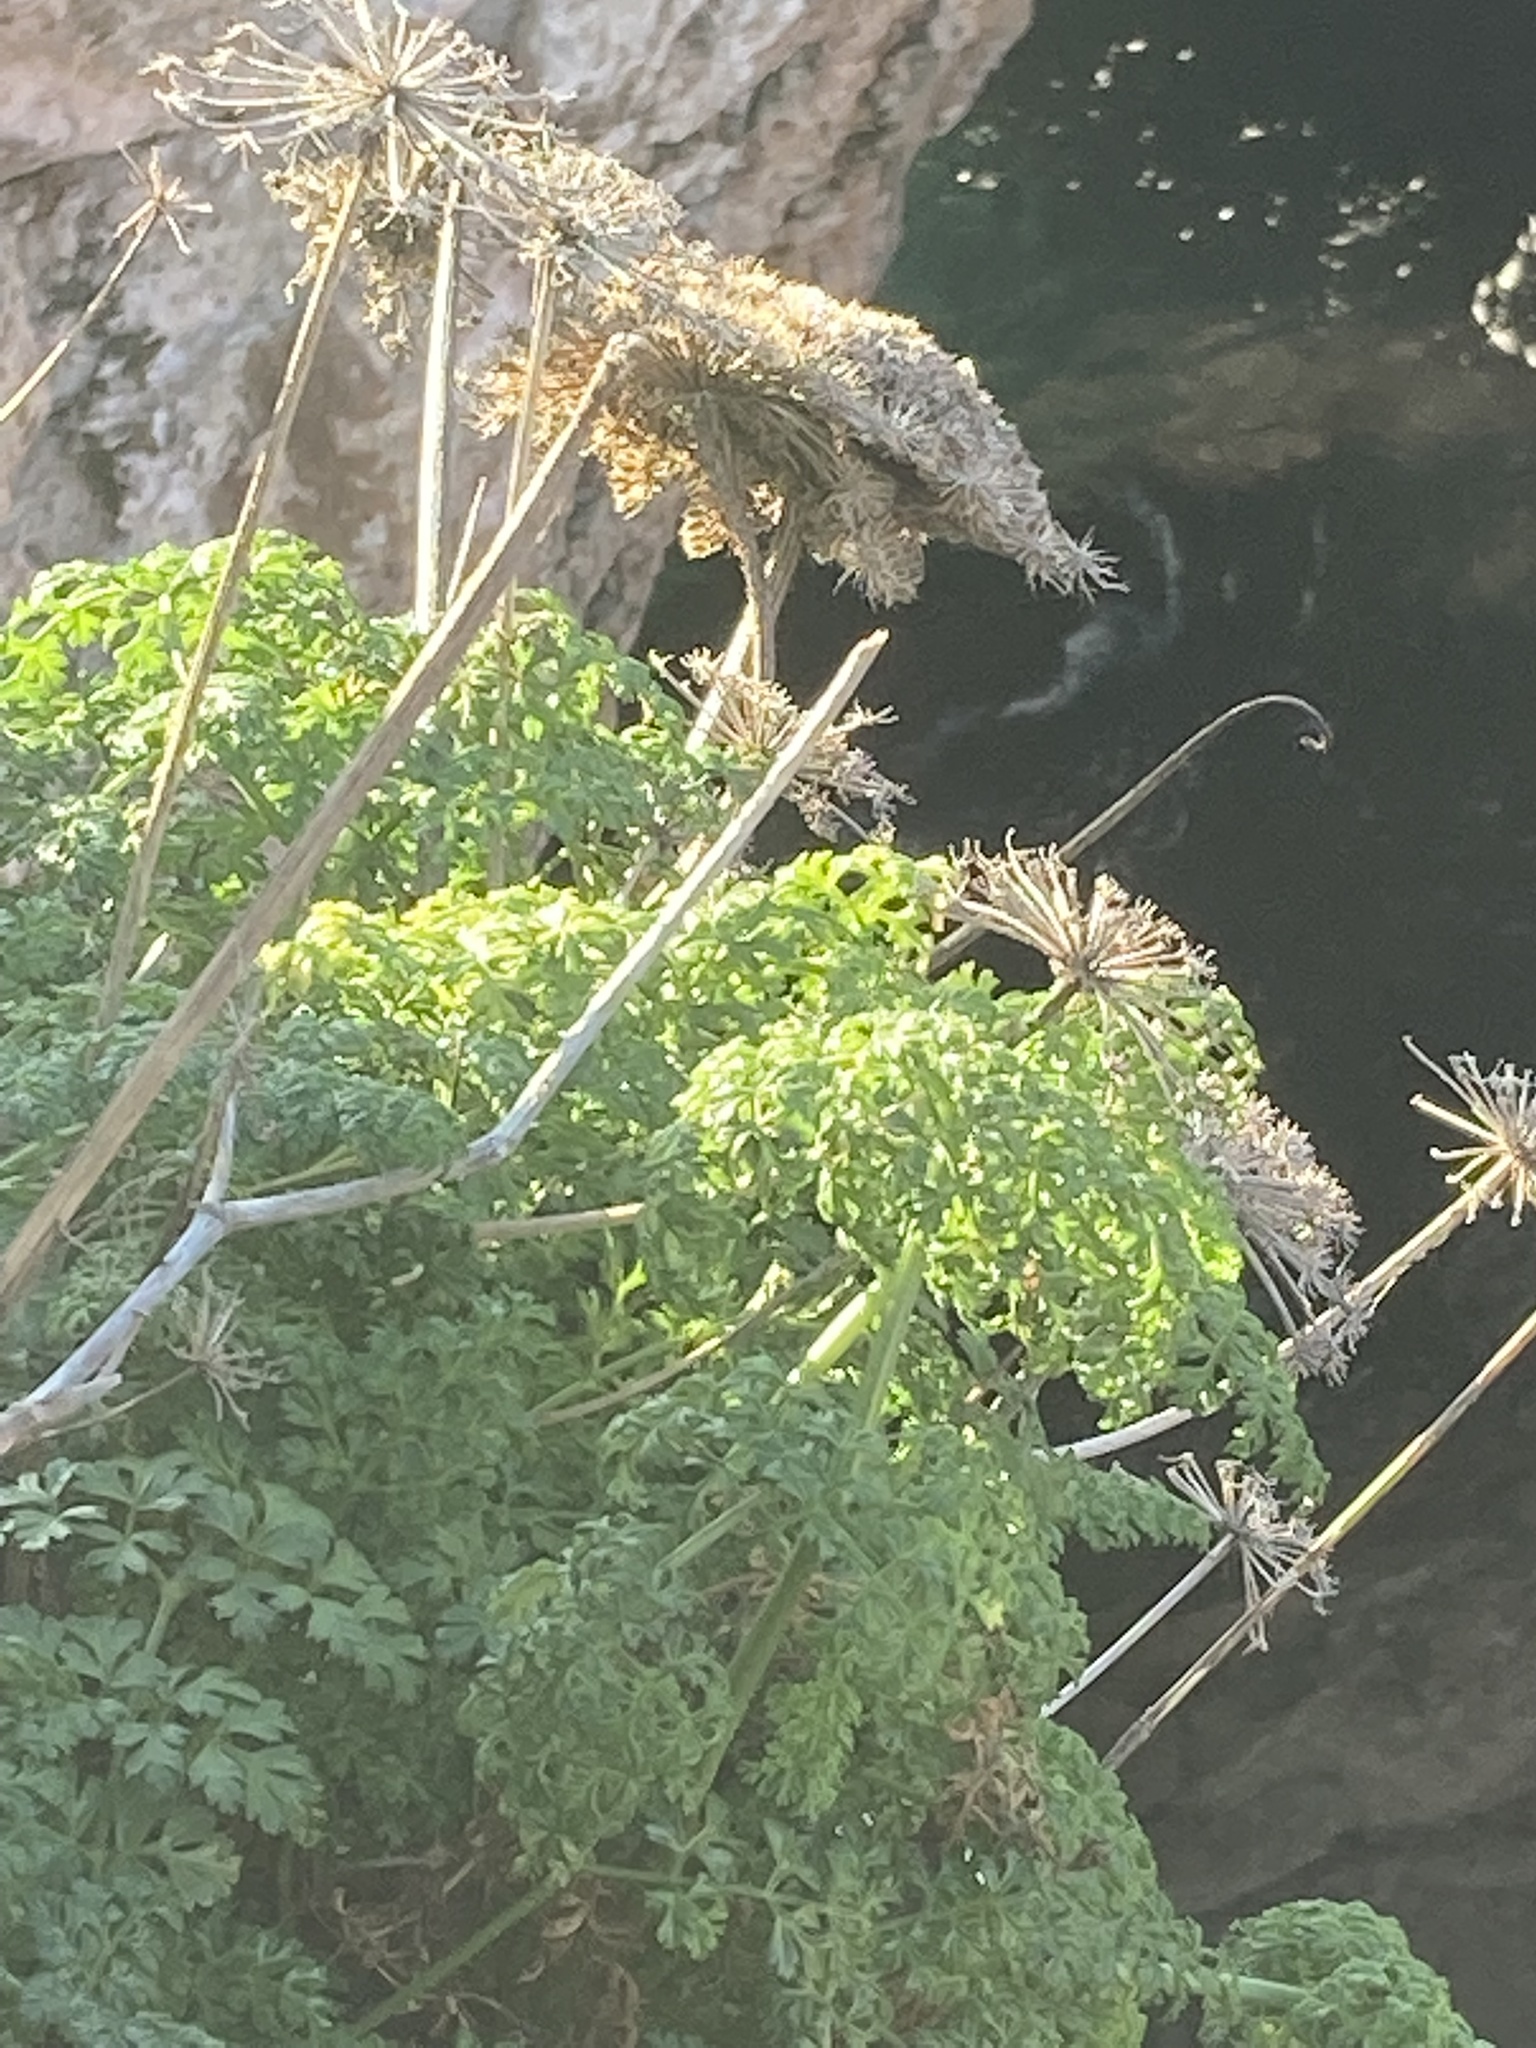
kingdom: Plantae
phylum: Tracheophyta
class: Magnoliopsida
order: Apiales
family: Apiaceae
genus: Daucus
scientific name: Daucus carota
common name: Wild carrot
